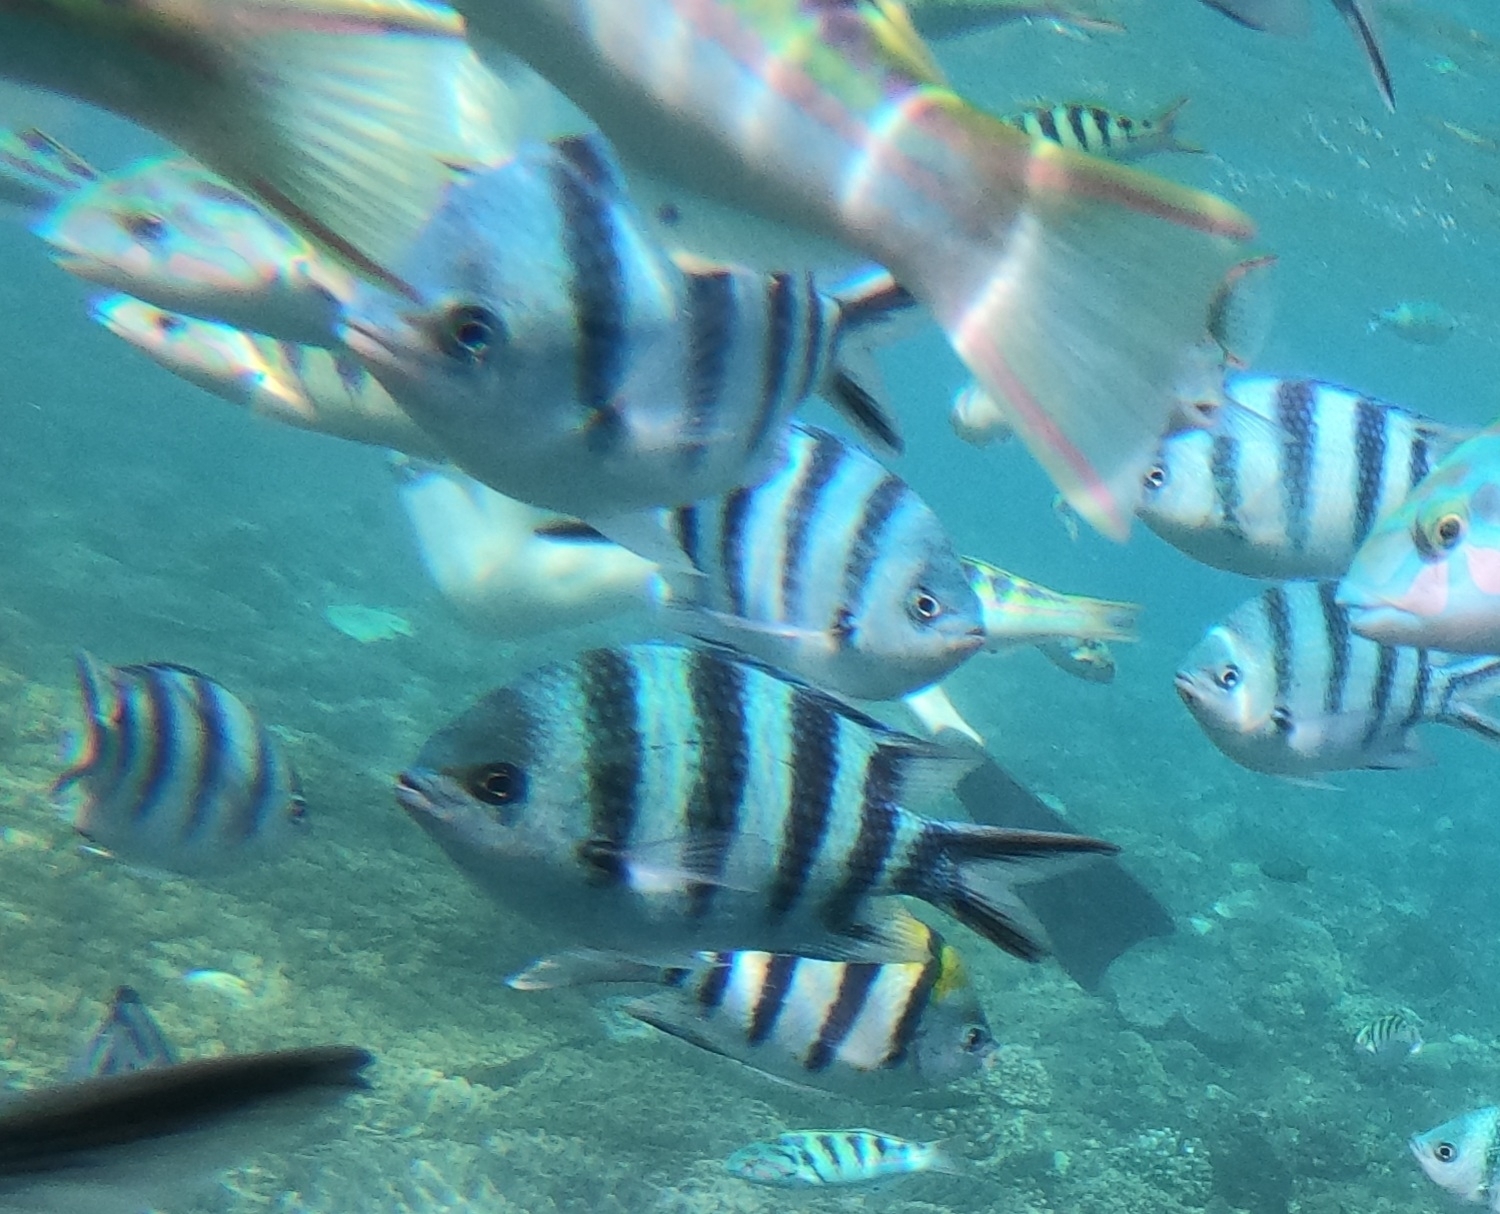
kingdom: Animalia
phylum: Chordata
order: Perciformes
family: Pomacentridae
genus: Abudefduf
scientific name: Abudefduf sexfasciatus
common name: Scissortail sergeant
